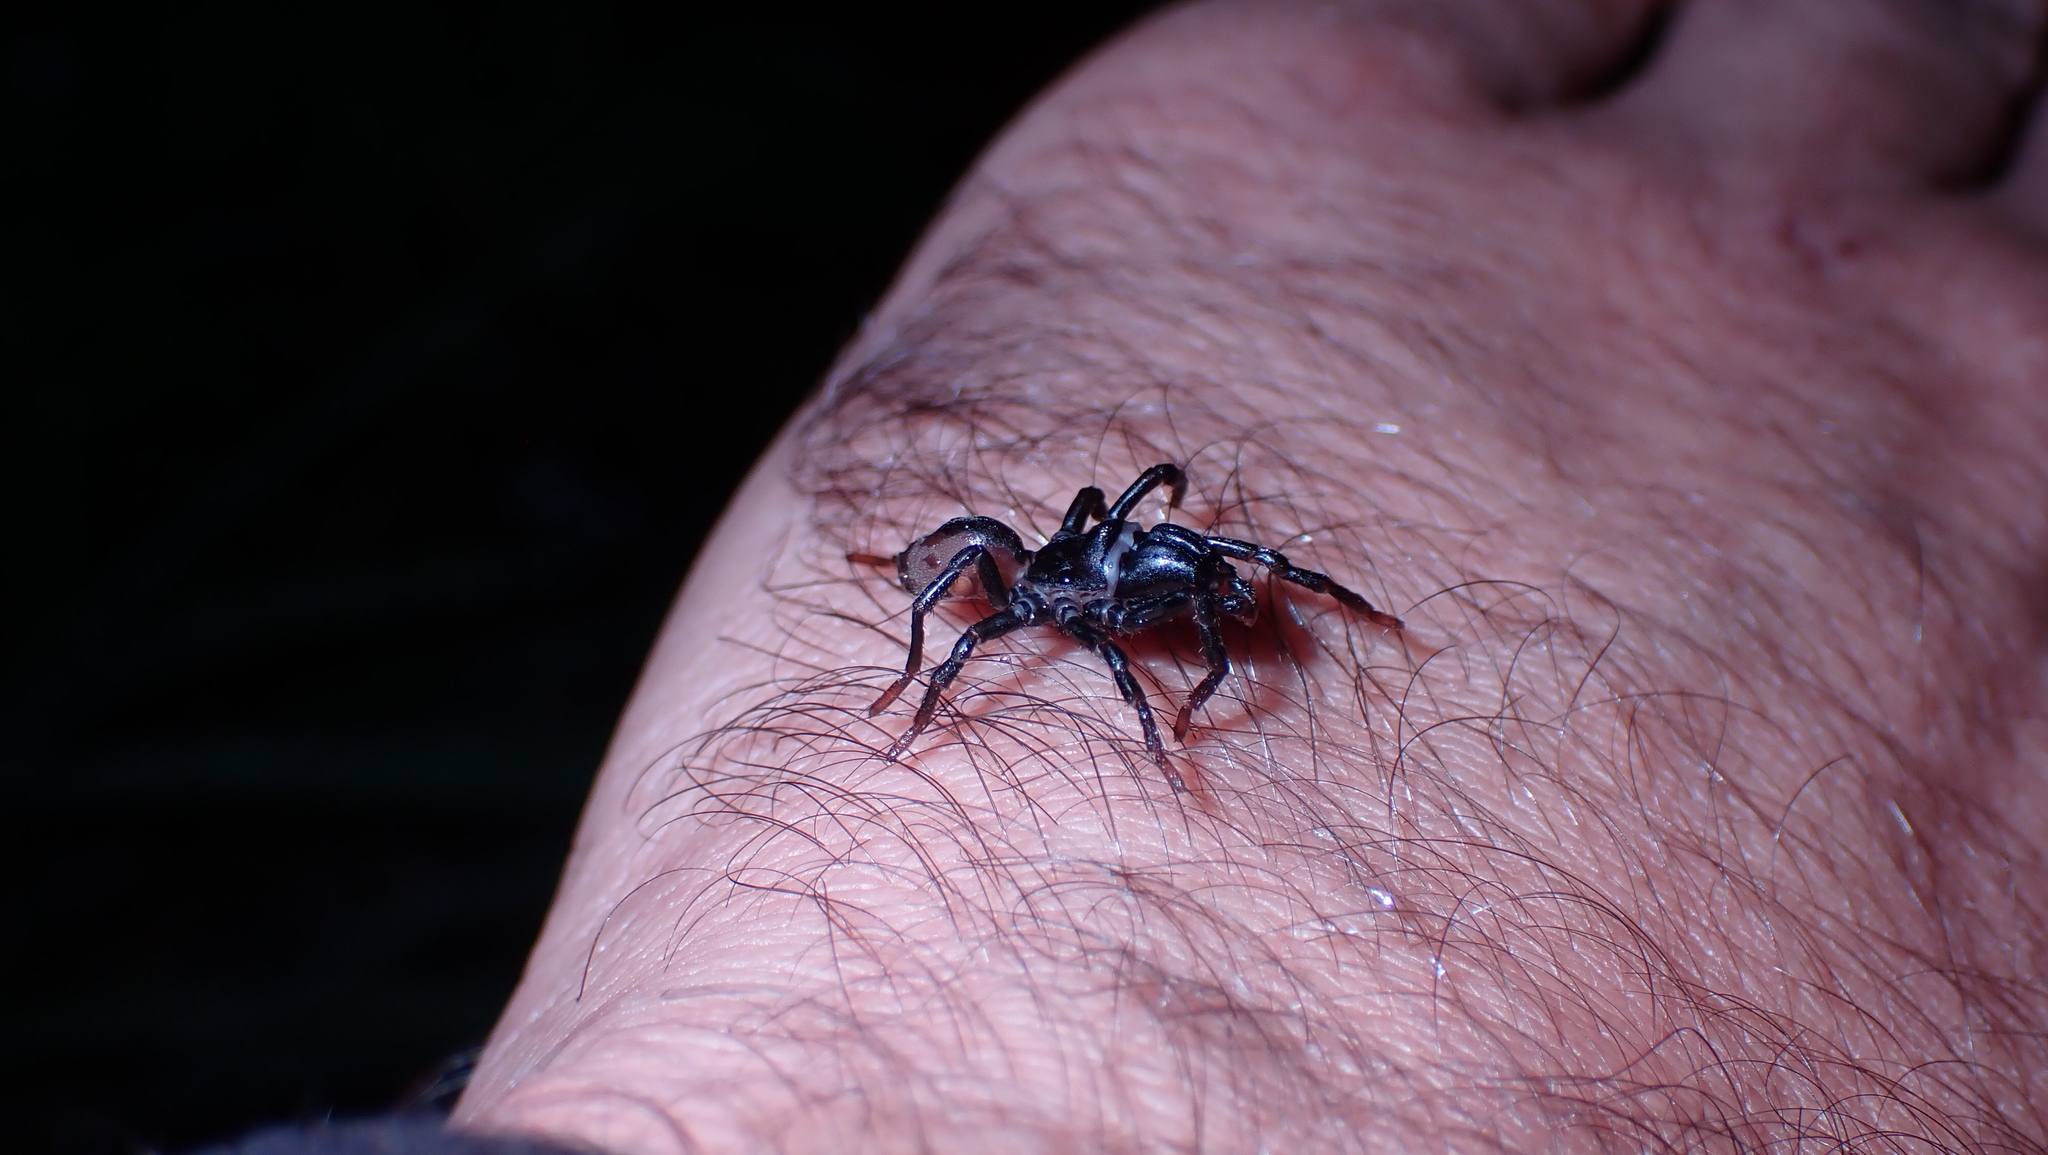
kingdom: Animalia
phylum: Arthropoda
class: Arachnida
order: Araneae
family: Atypidae
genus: Atypus
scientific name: Atypus affinis
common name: Purse web spider
